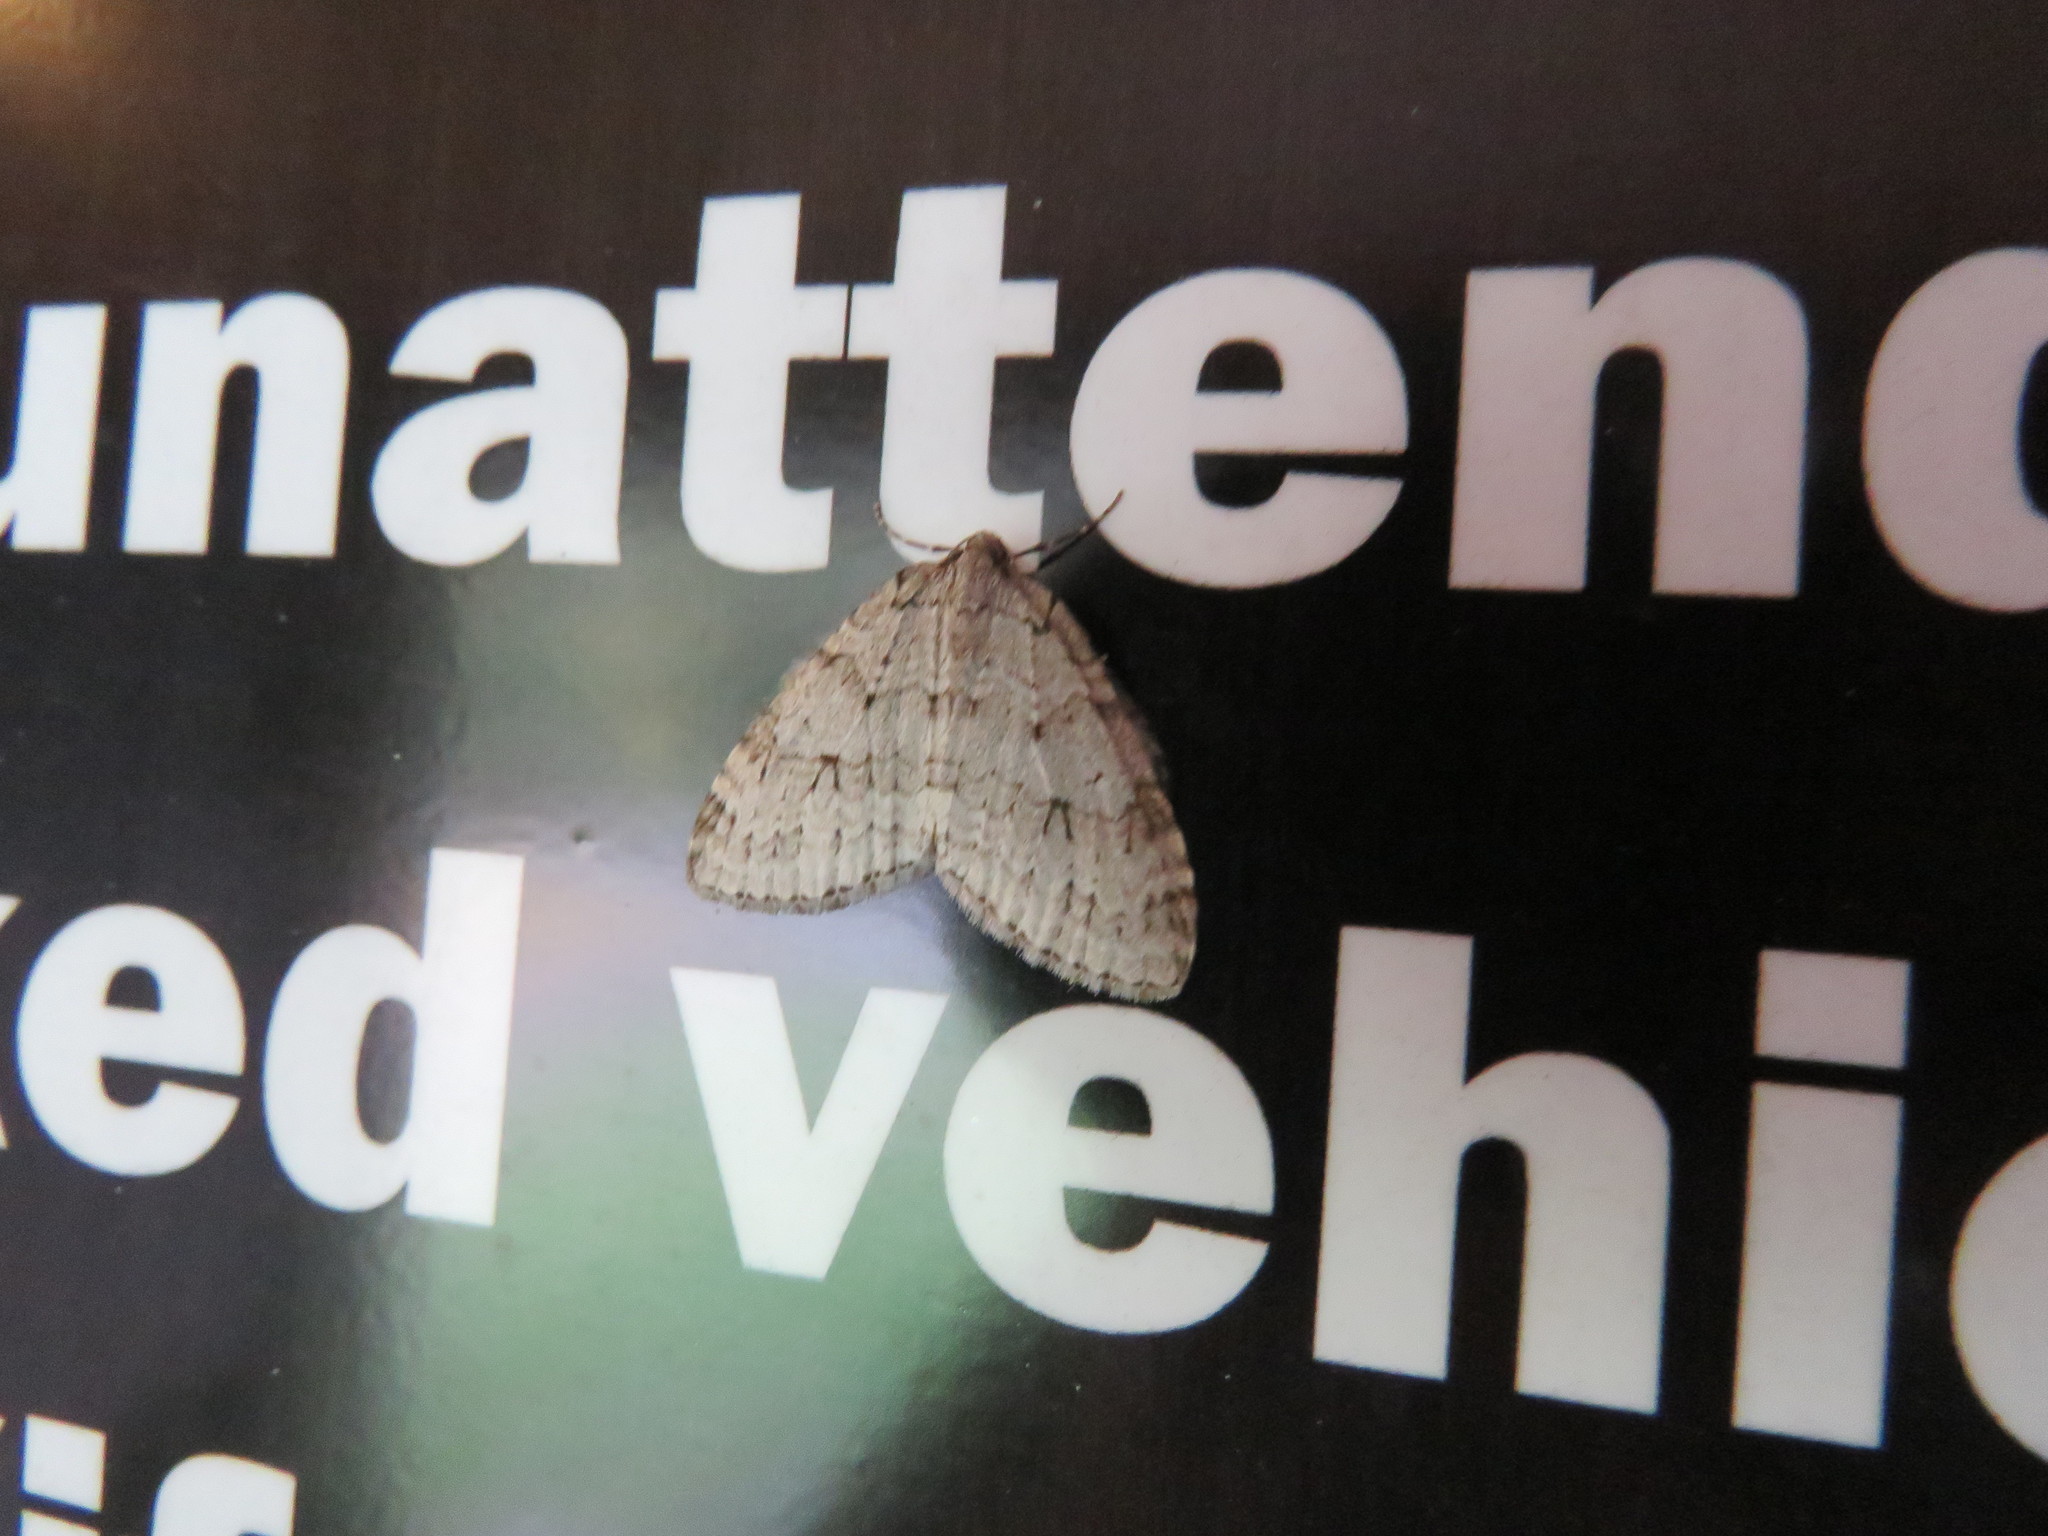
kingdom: Animalia
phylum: Arthropoda
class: Insecta
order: Lepidoptera
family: Geometridae
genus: Epirrita
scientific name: Epirrita autumnata
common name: Autumnal moth
